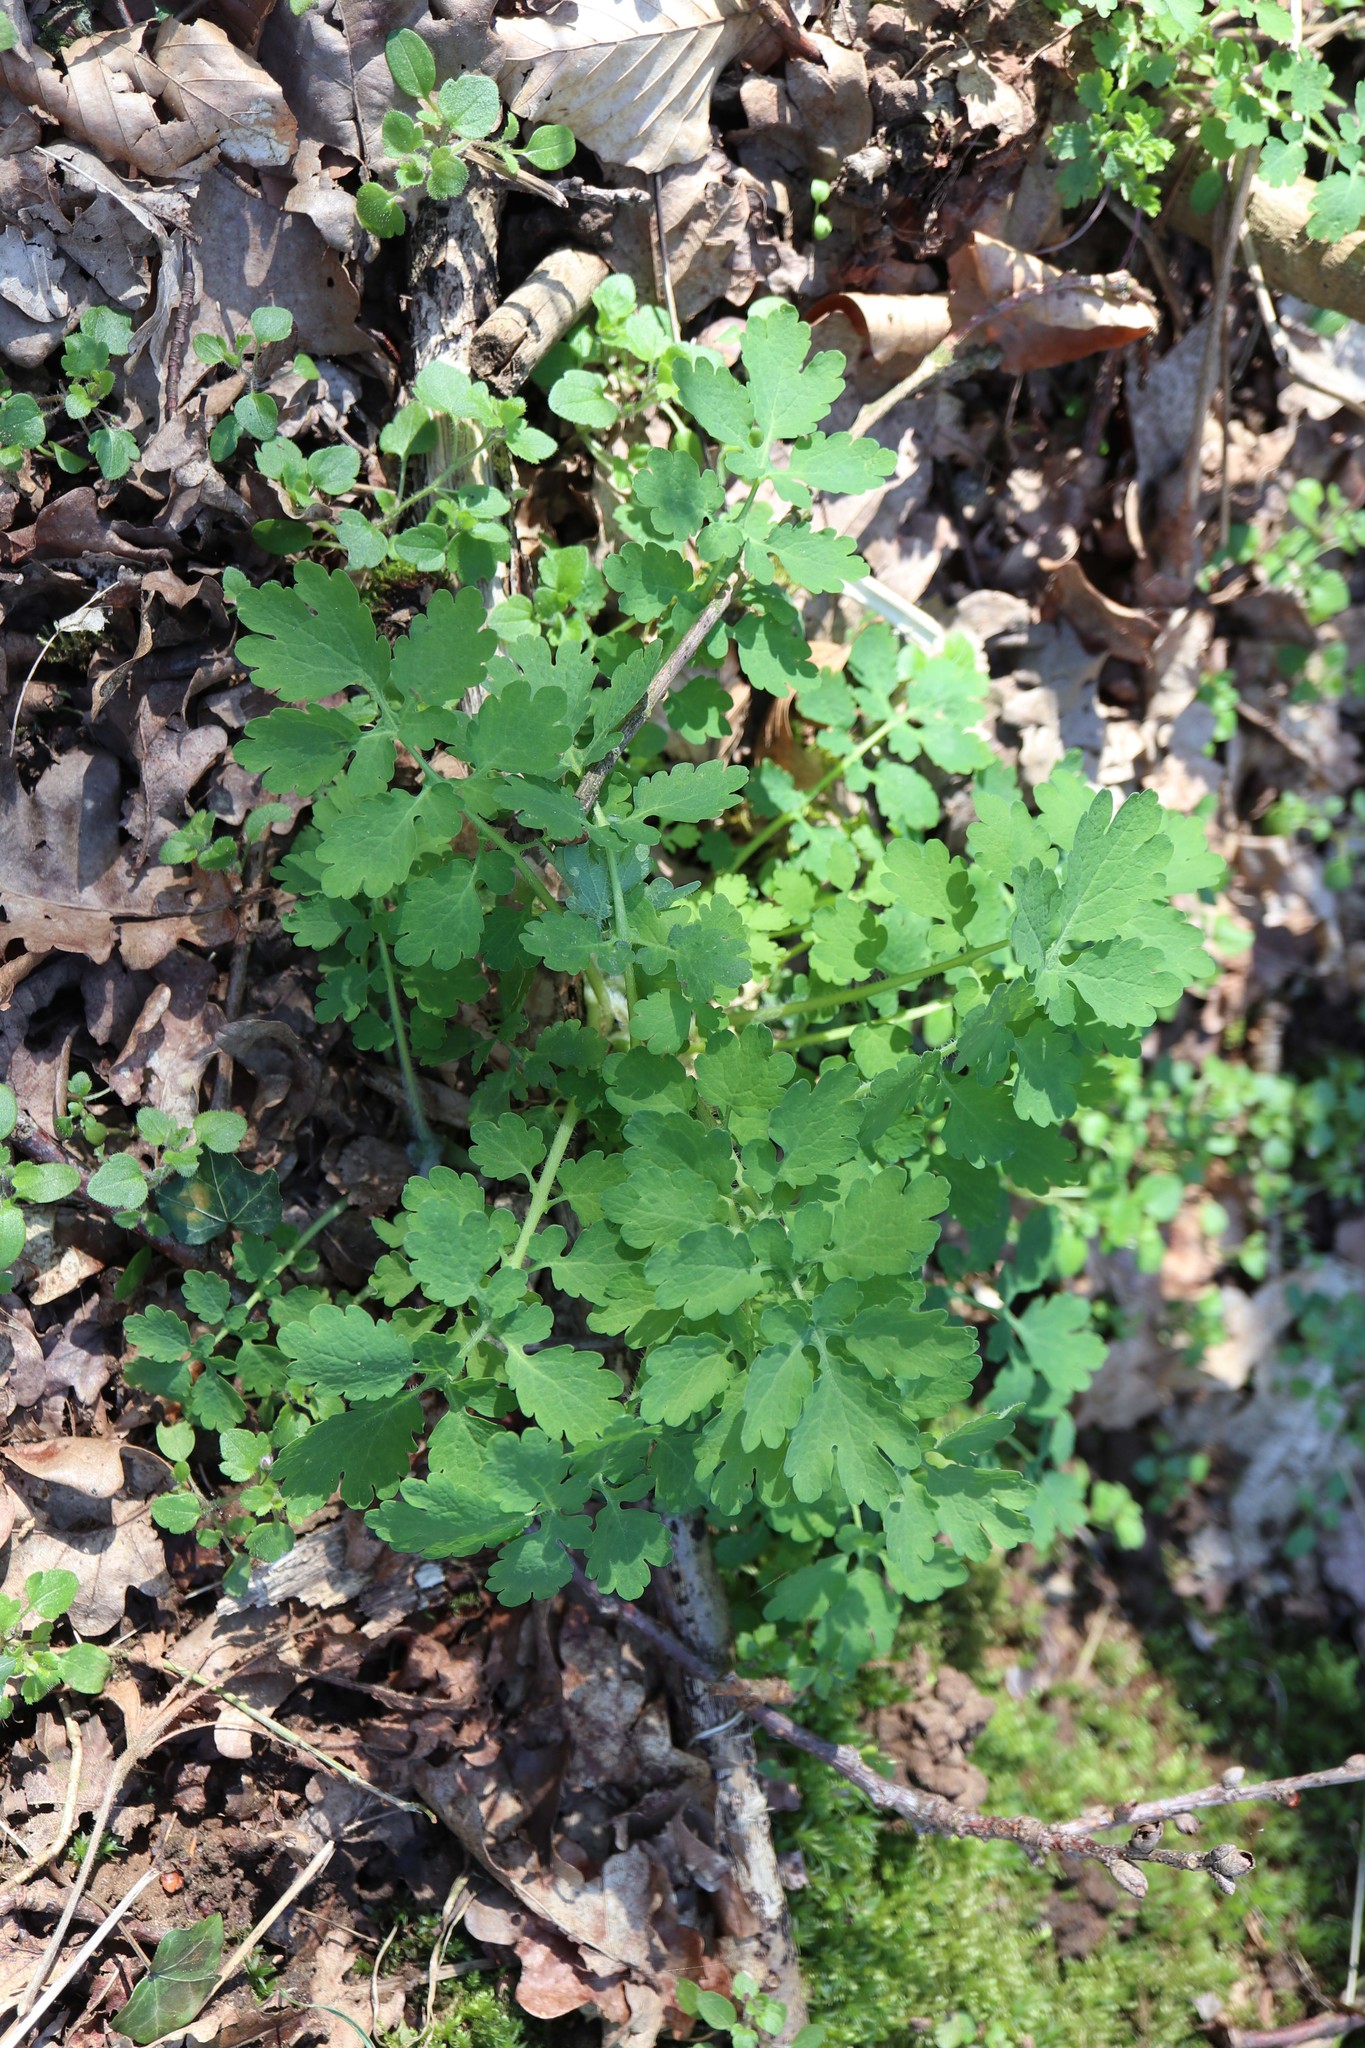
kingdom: Plantae
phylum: Tracheophyta
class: Magnoliopsida
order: Ranunculales
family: Papaveraceae
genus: Chelidonium
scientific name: Chelidonium majus
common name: Greater celandine
